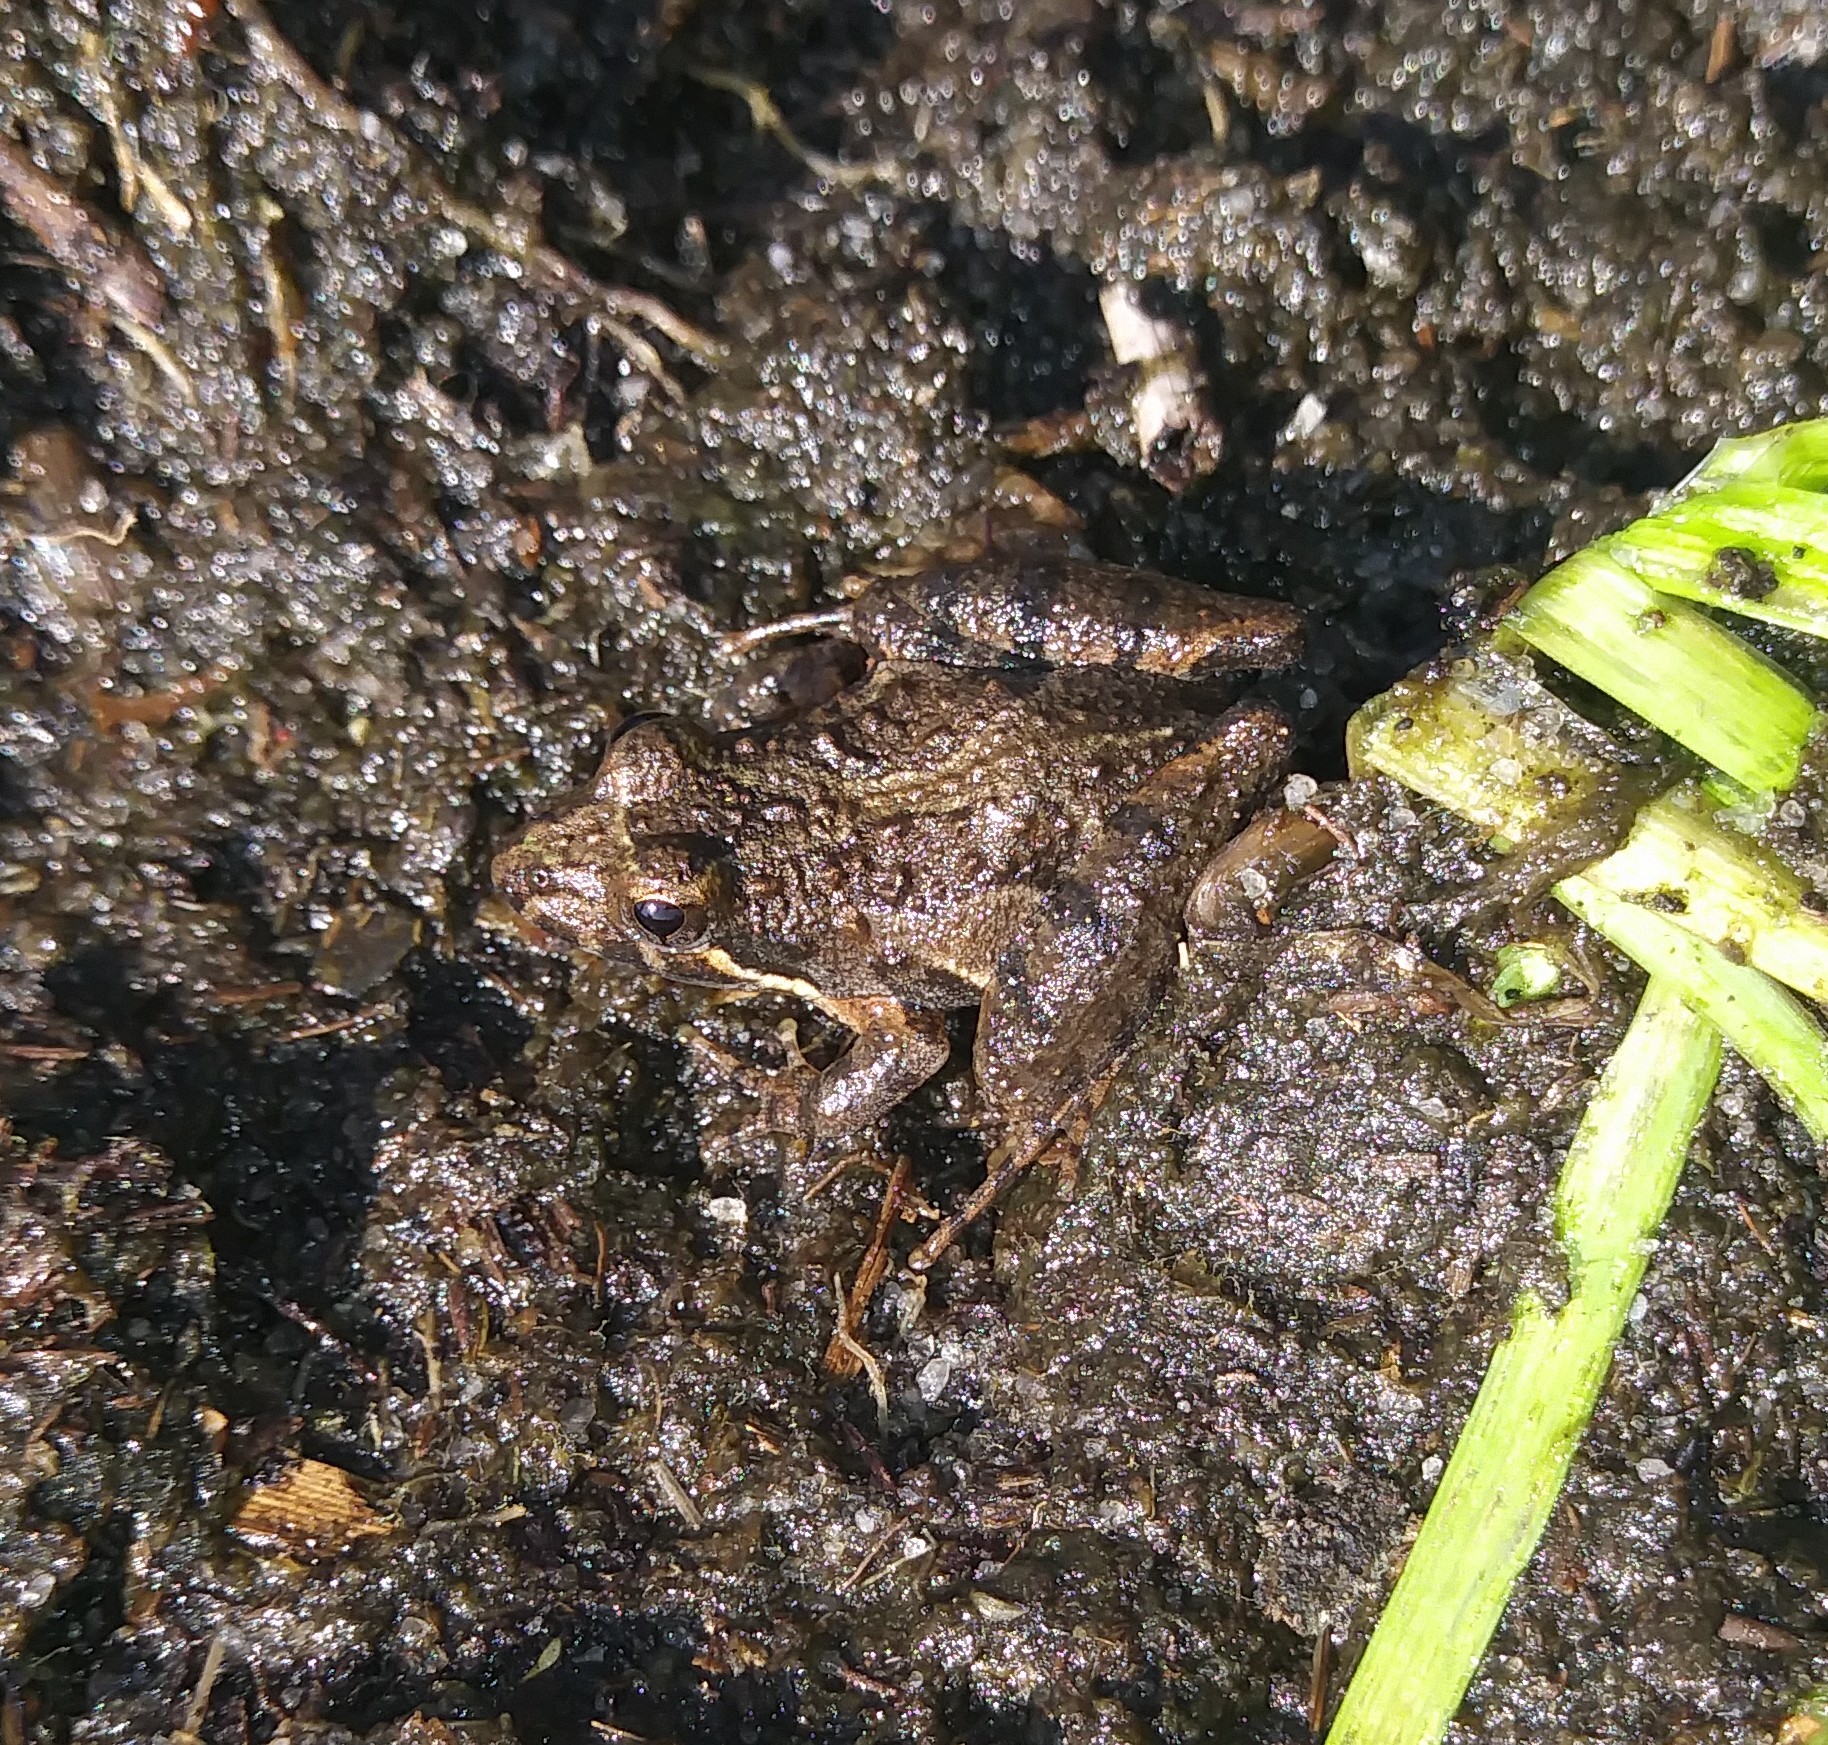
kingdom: Animalia
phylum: Chordata
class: Amphibia
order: Anura
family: Hylidae
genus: Acris
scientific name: Acris gryllus
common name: Southern cricket frog
